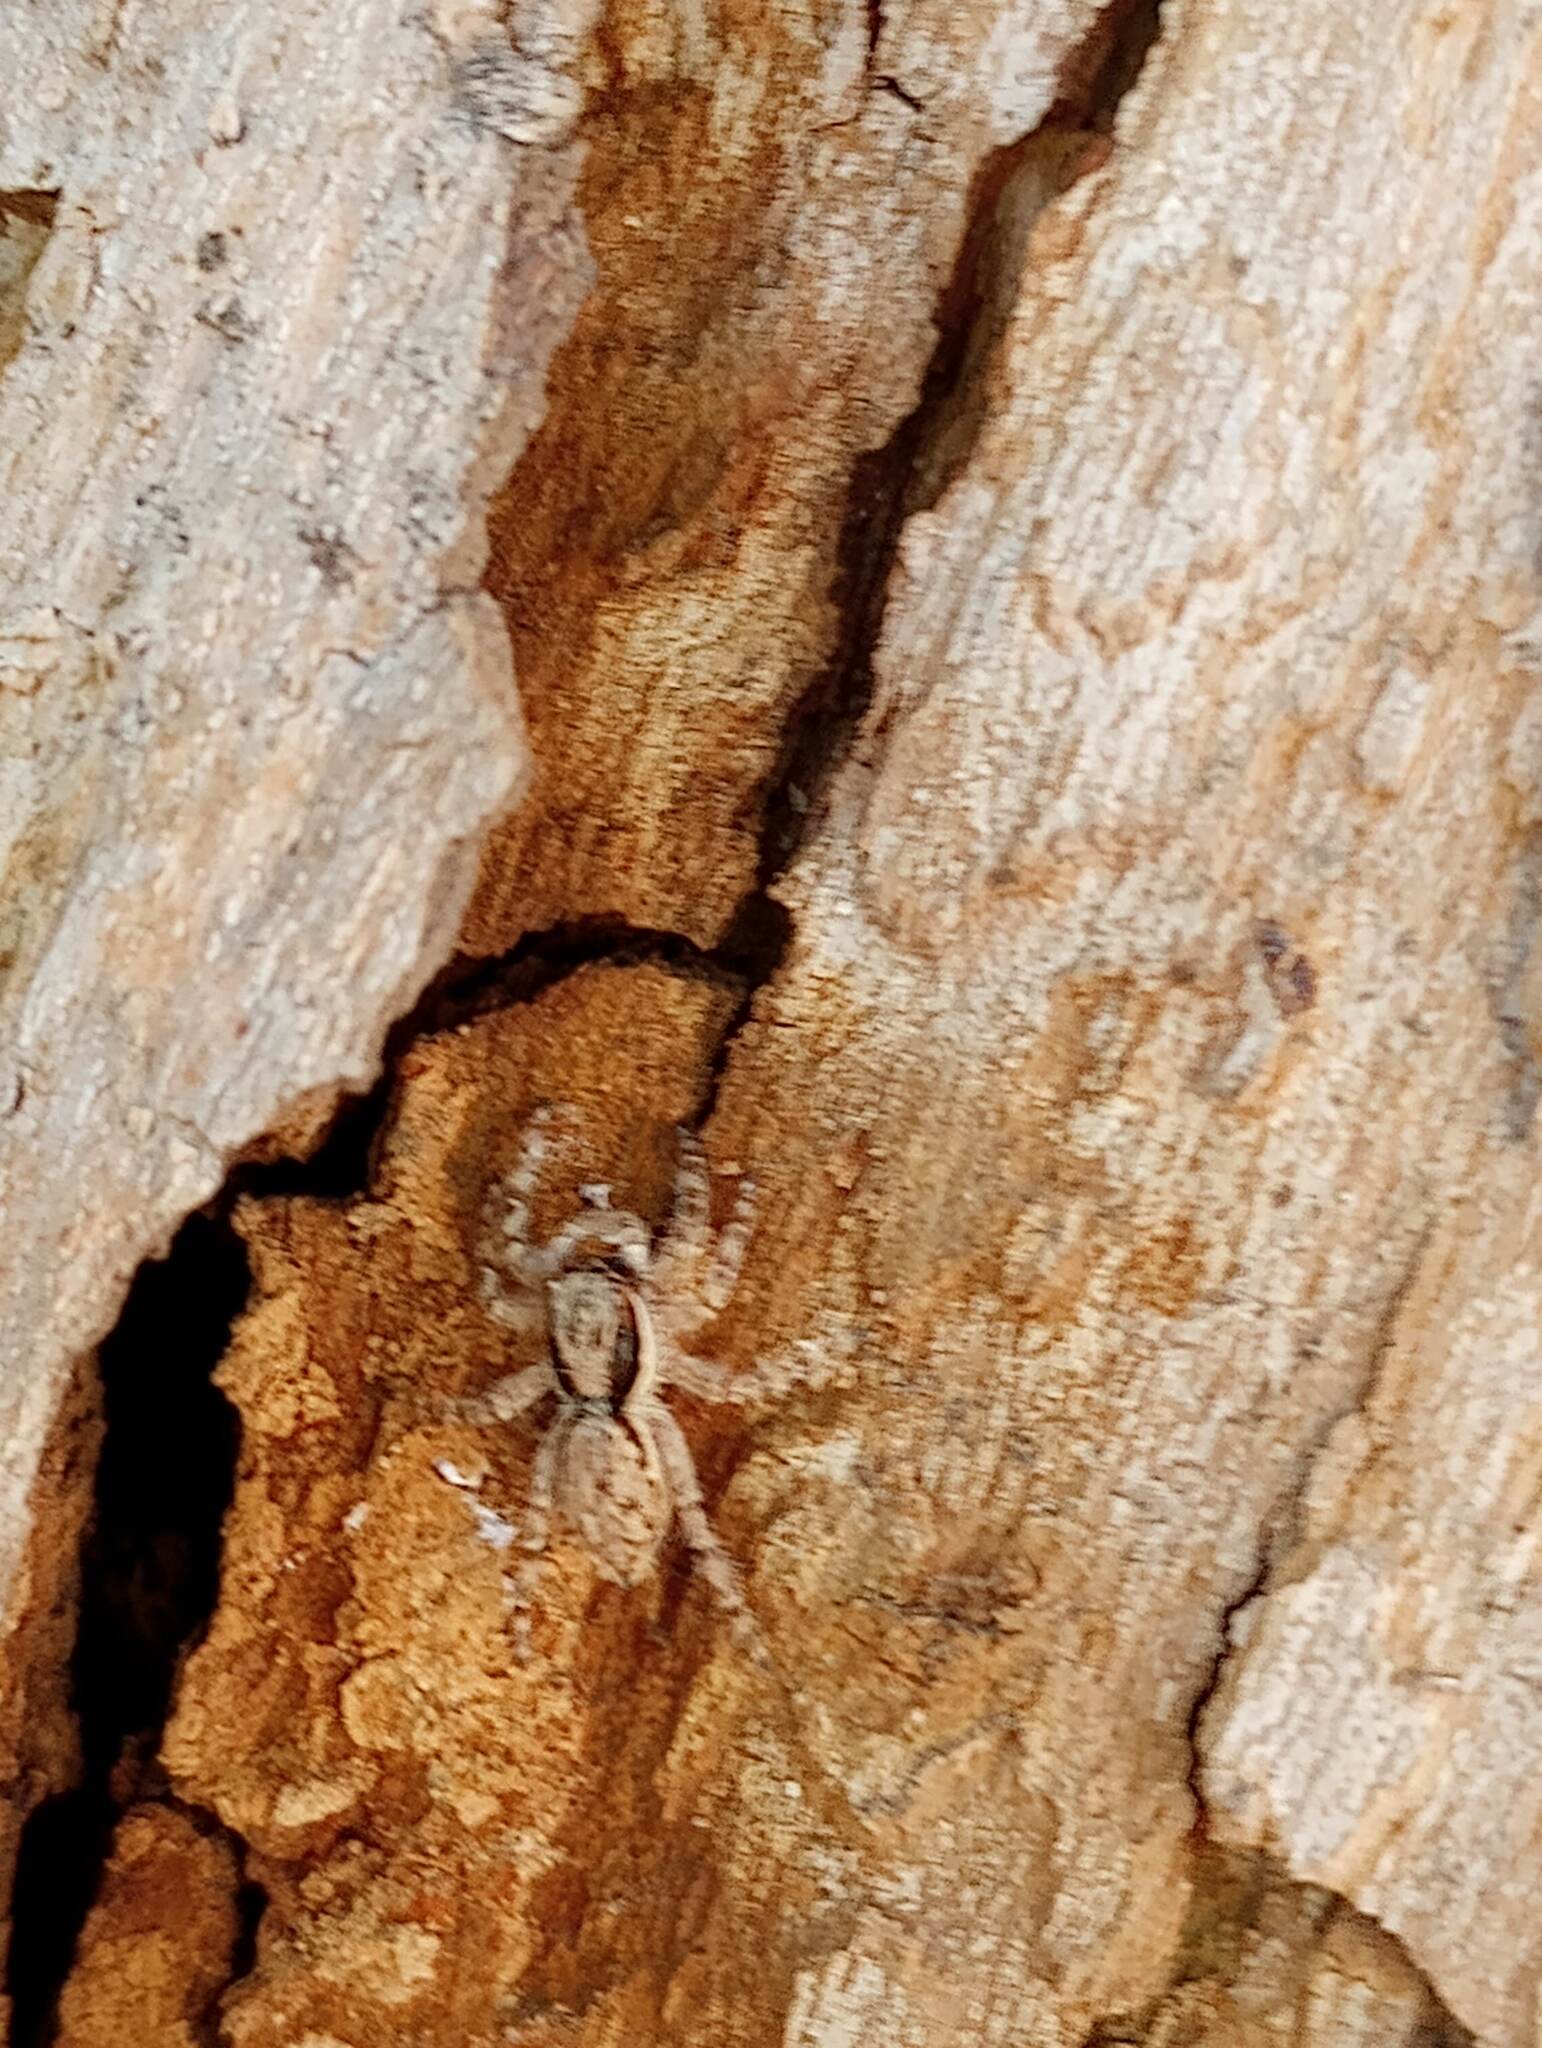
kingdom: Animalia
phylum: Arthropoda
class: Arachnida
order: Araneae
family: Salticidae
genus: Menemerus
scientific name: Menemerus bivittatus
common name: Gray wall jumper
